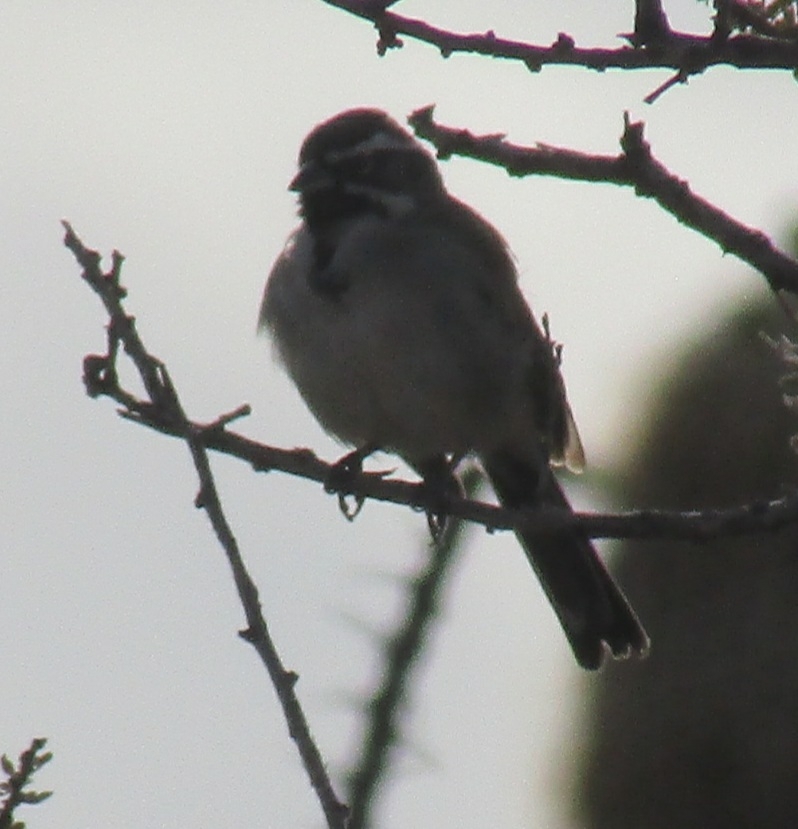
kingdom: Animalia
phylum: Chordata
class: Aves
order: Passeriformes
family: Passerellidae
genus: Amphispiza
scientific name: Amphispiza bilineata
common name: Black-throated sparrow
